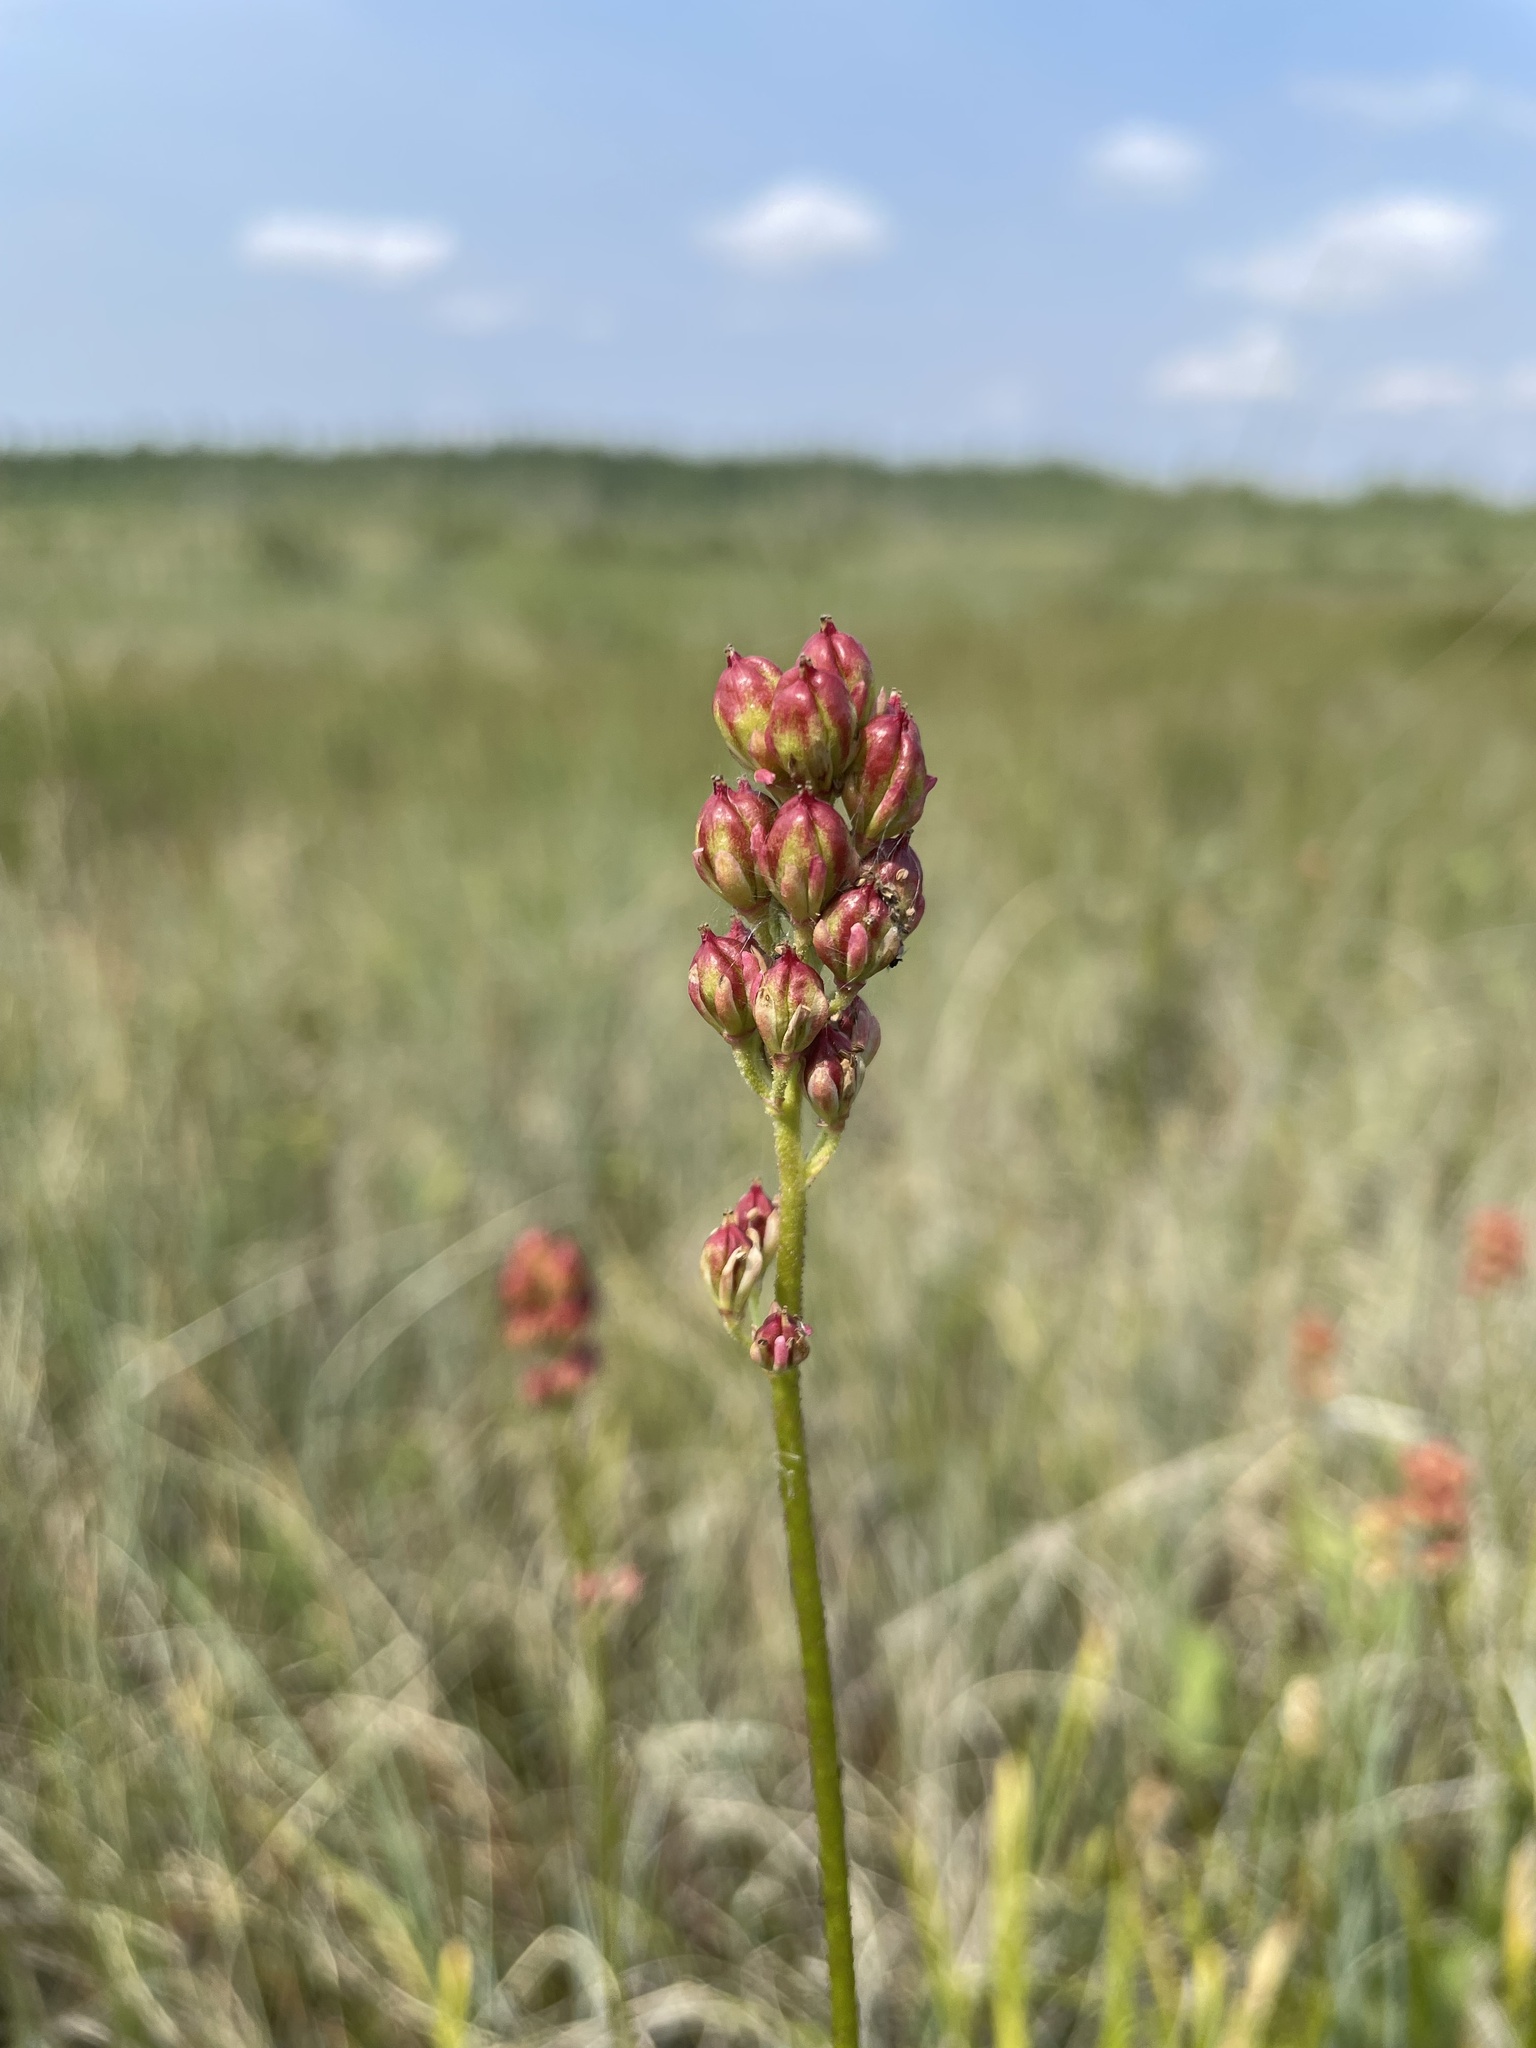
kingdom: Plantae
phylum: Tracheophyta
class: Liliopsida
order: Alismatales
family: Tofieldiaceae
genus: Triantha
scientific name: Triantha glutinosa
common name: Glutinous tofieldia
